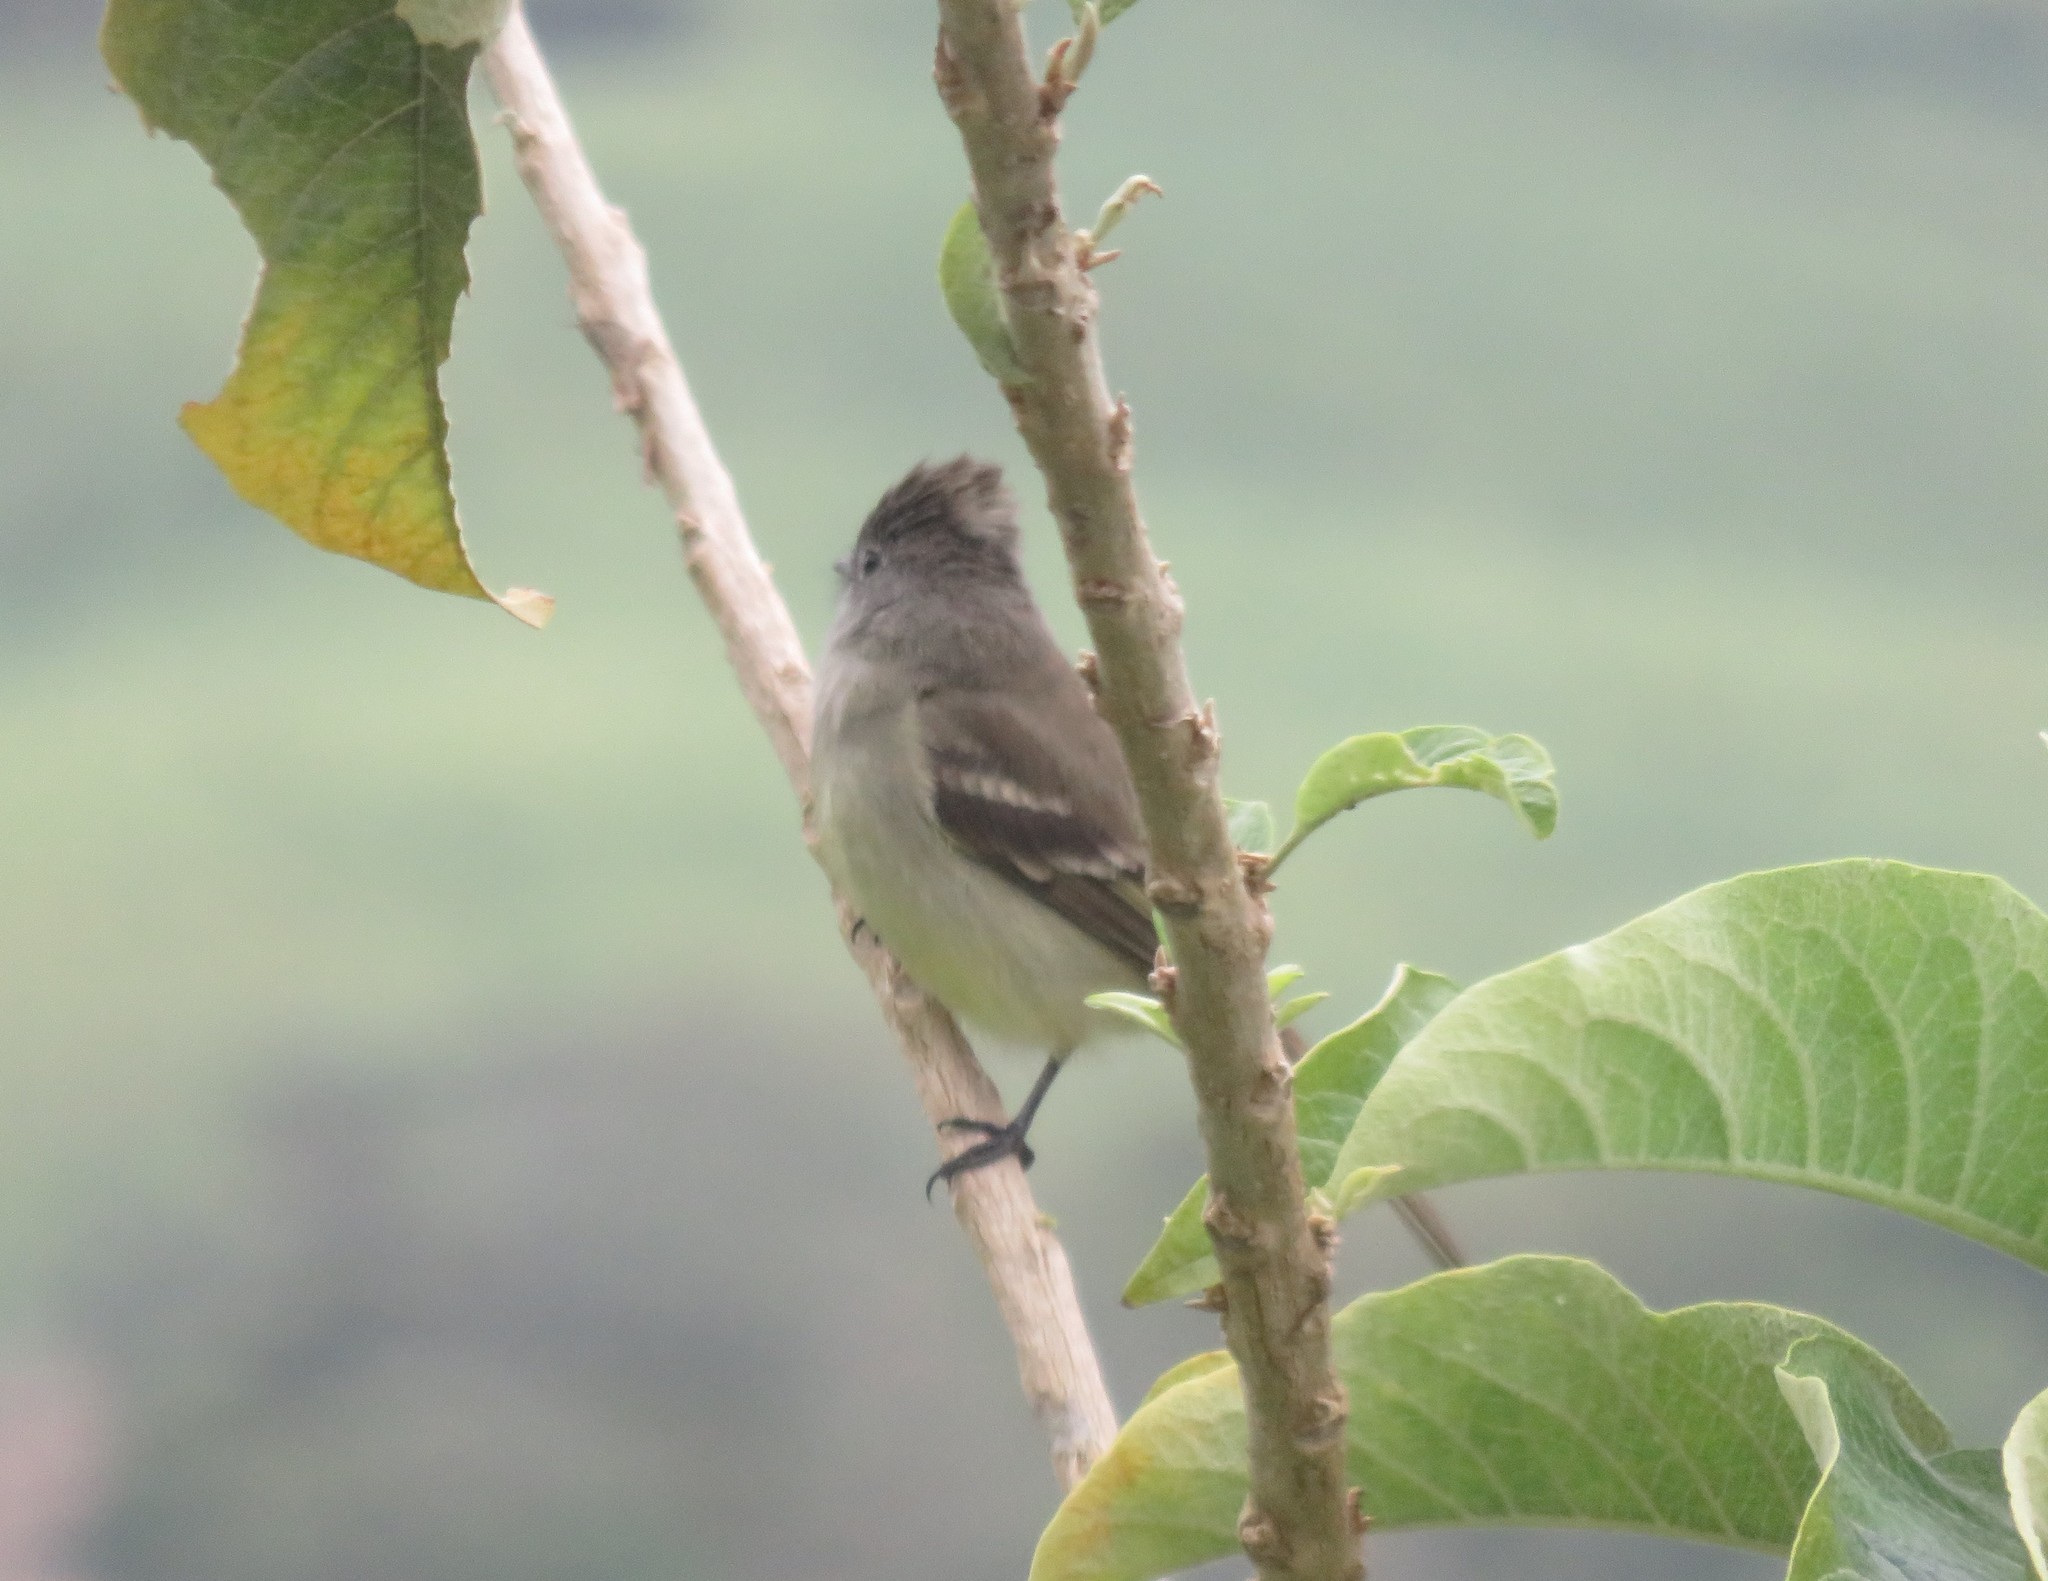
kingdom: Animalia
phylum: Chordata
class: Aves
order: Passeriformes
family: Tyrannidae
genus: Elaenia
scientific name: Elaenia flavogaster
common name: Yellow-bellied elaenia
